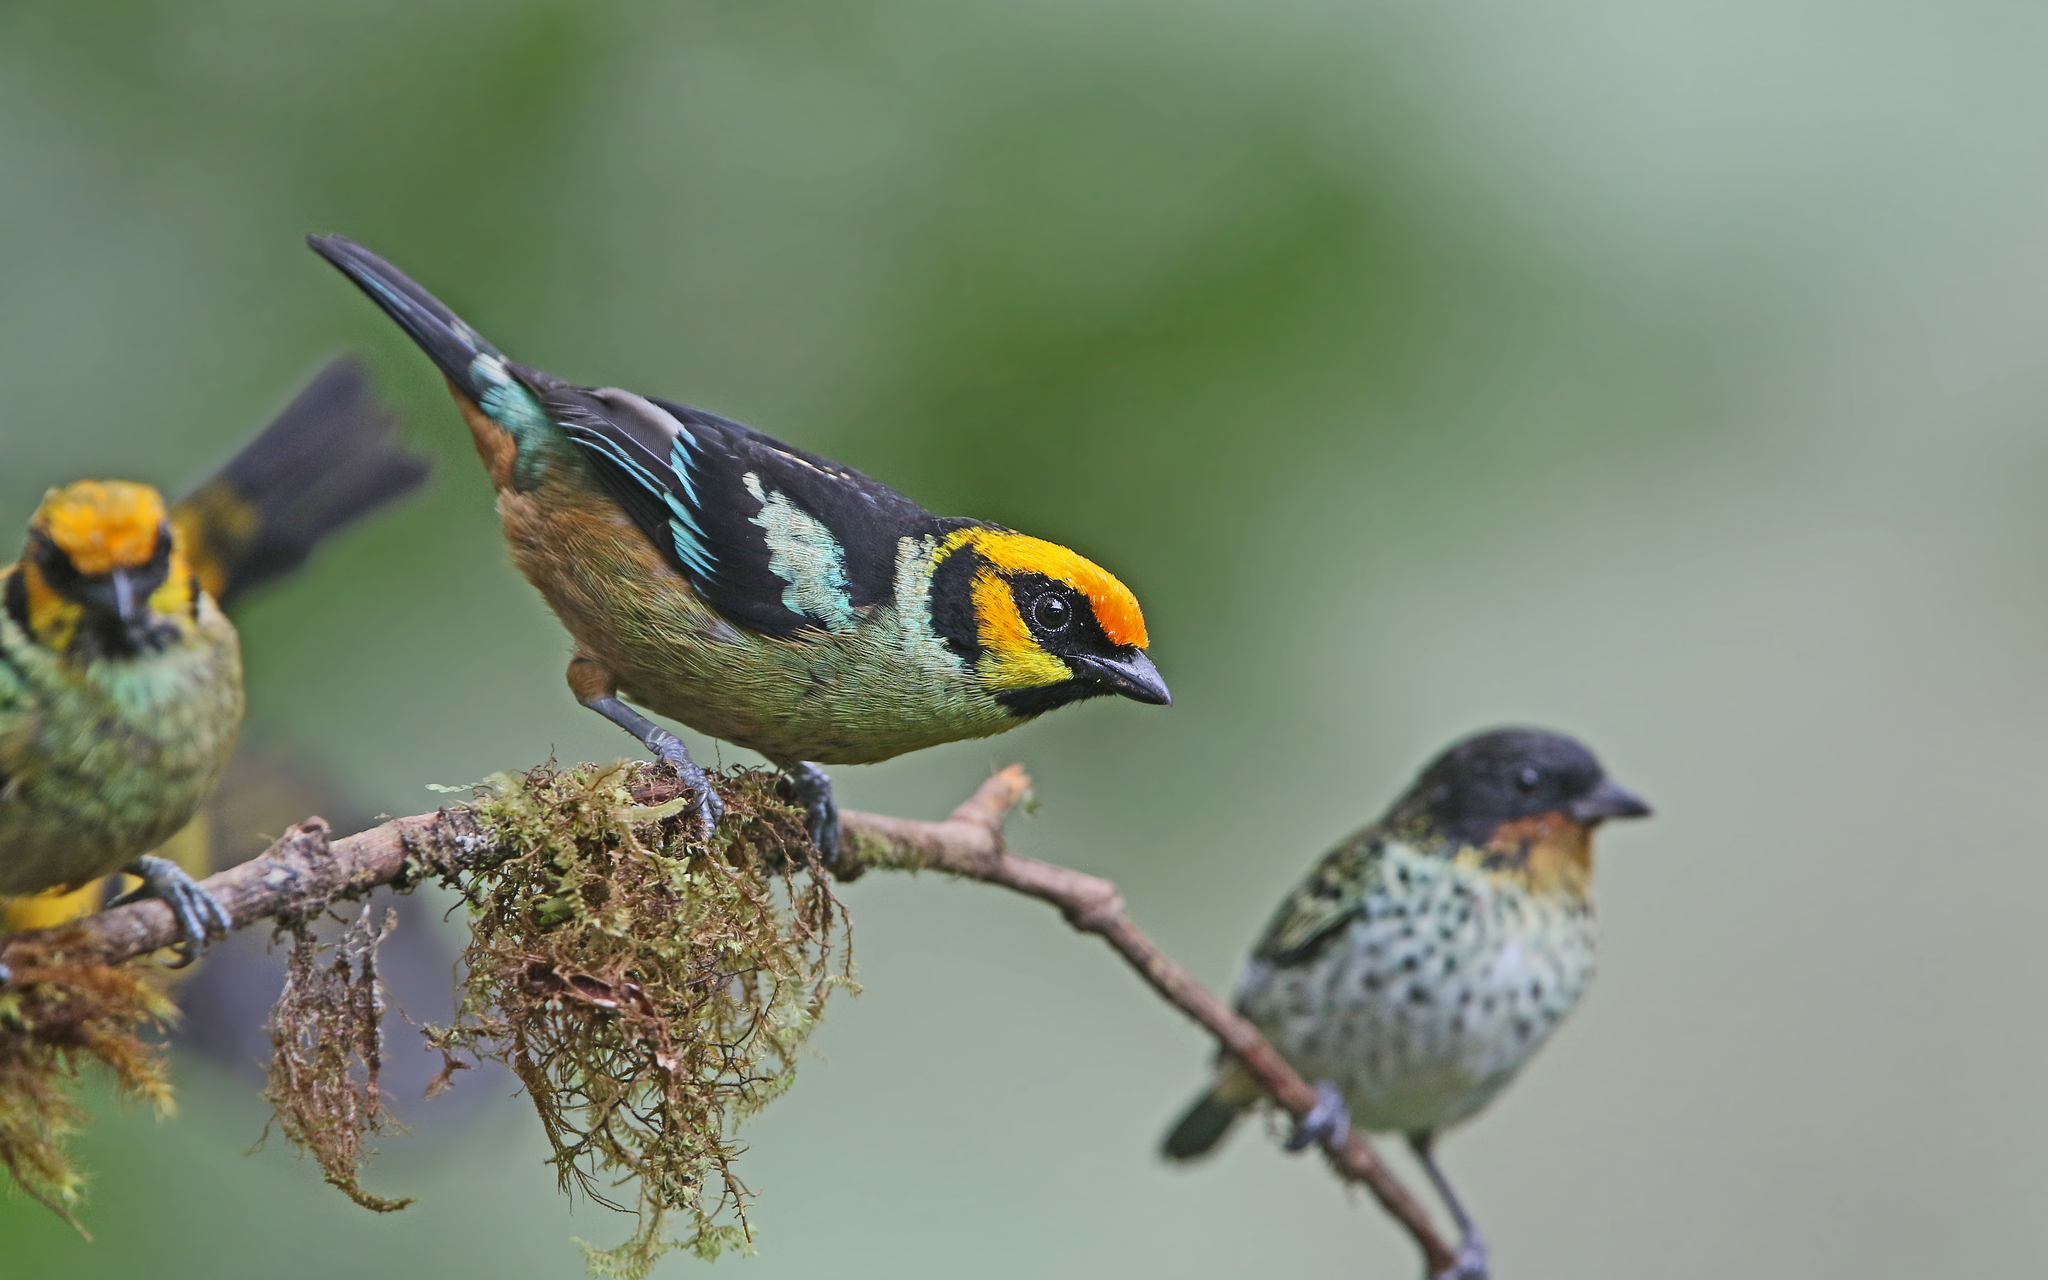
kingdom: Animalia
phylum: Chordata
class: Aves
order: Passeriformes
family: Thraupidae
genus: Tangara
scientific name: Tangara parzudakii
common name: Flame-faced tanager
